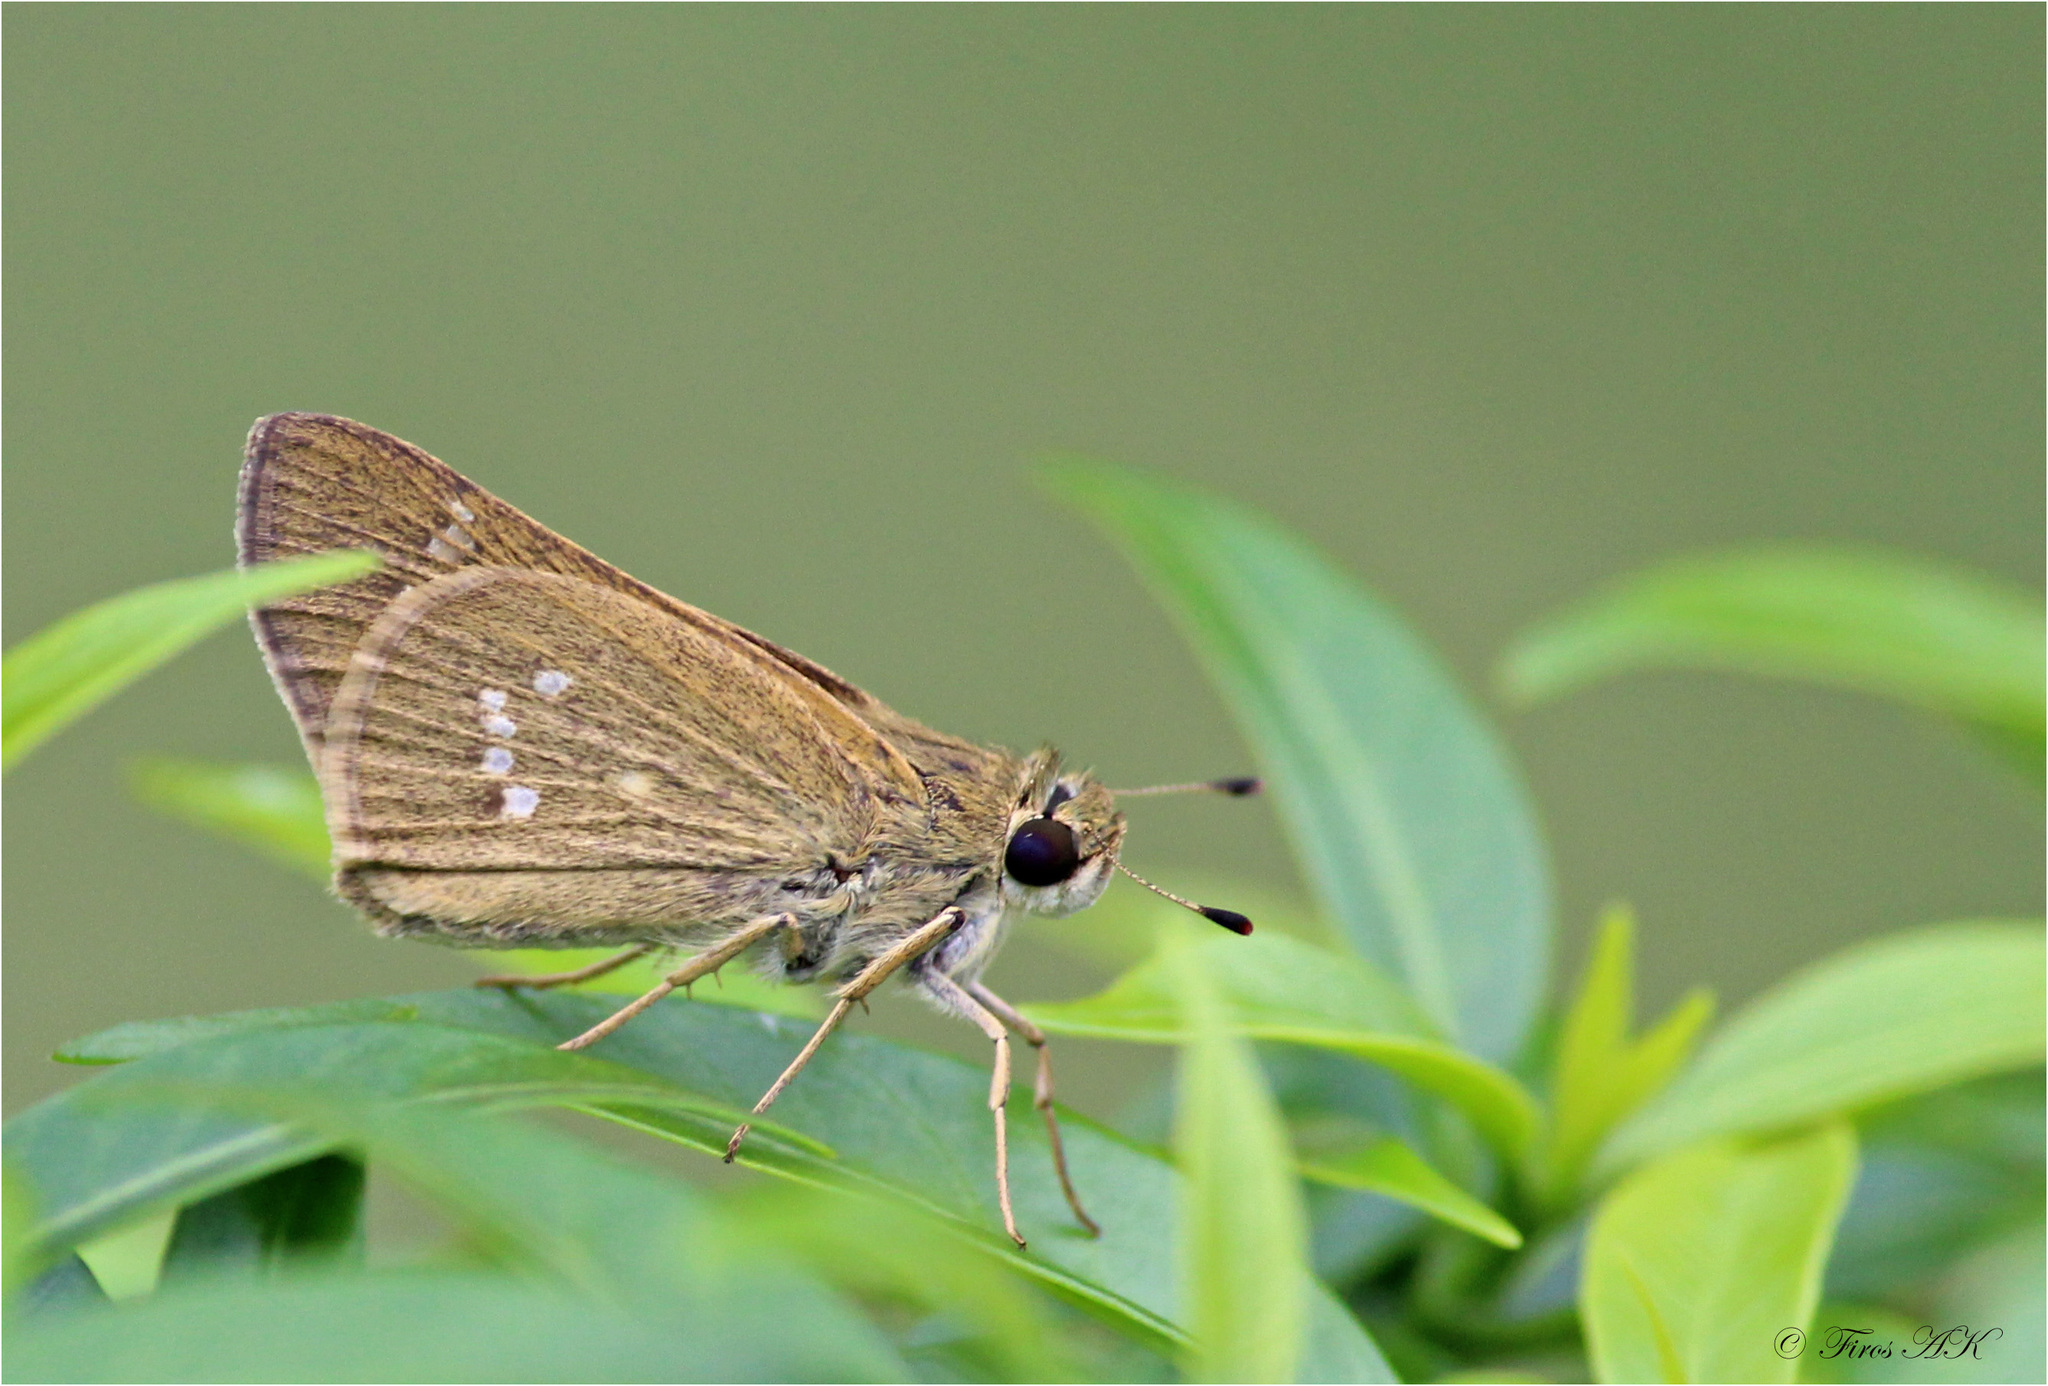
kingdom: Animalia
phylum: Arthropoda
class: Insecta
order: Lepidoptera
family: Hesperiidae
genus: Parnara
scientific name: Parnara naso
